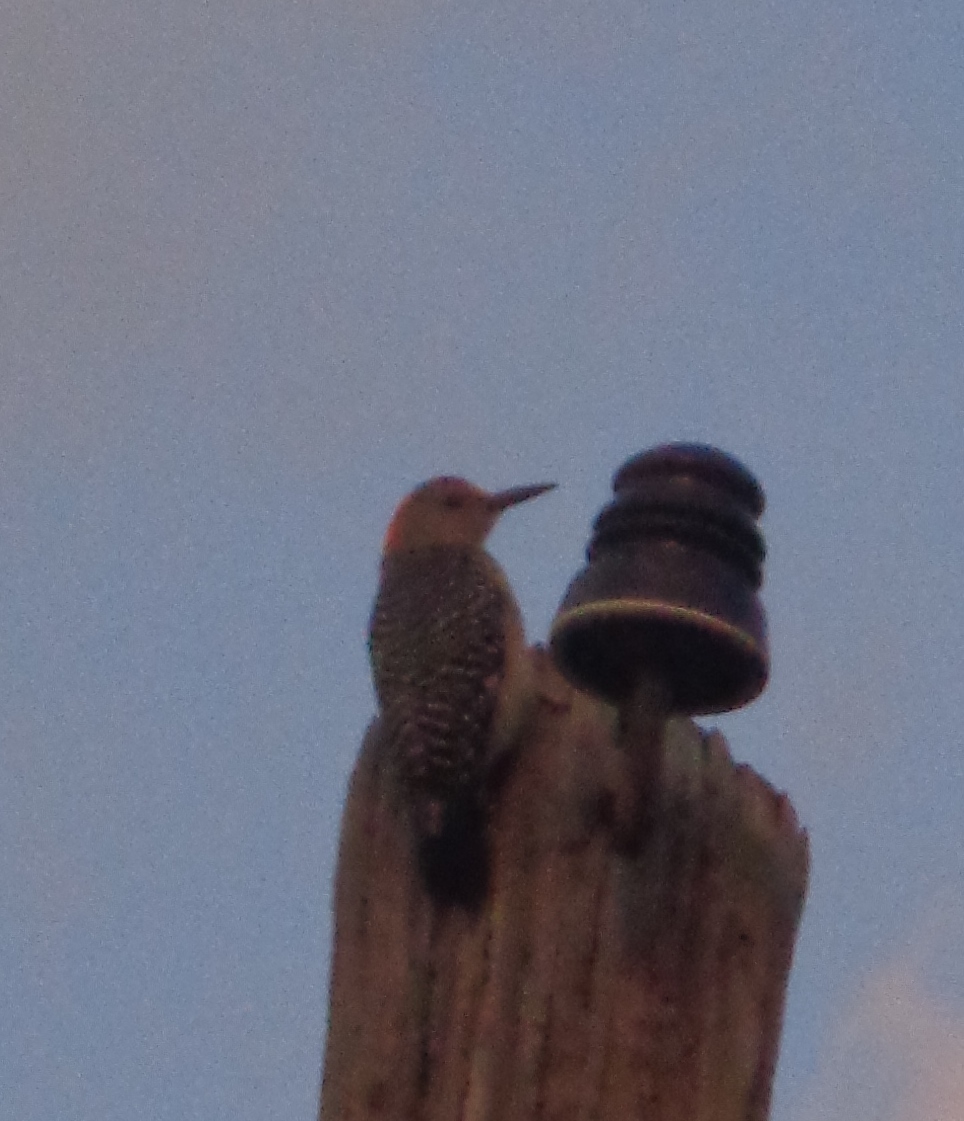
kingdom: Animalia
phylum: Chordata
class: Aves
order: Piciformes
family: Picidae
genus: Melanerpes
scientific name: Melanerpes aurifrons
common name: Golden-fronted woodpecker
